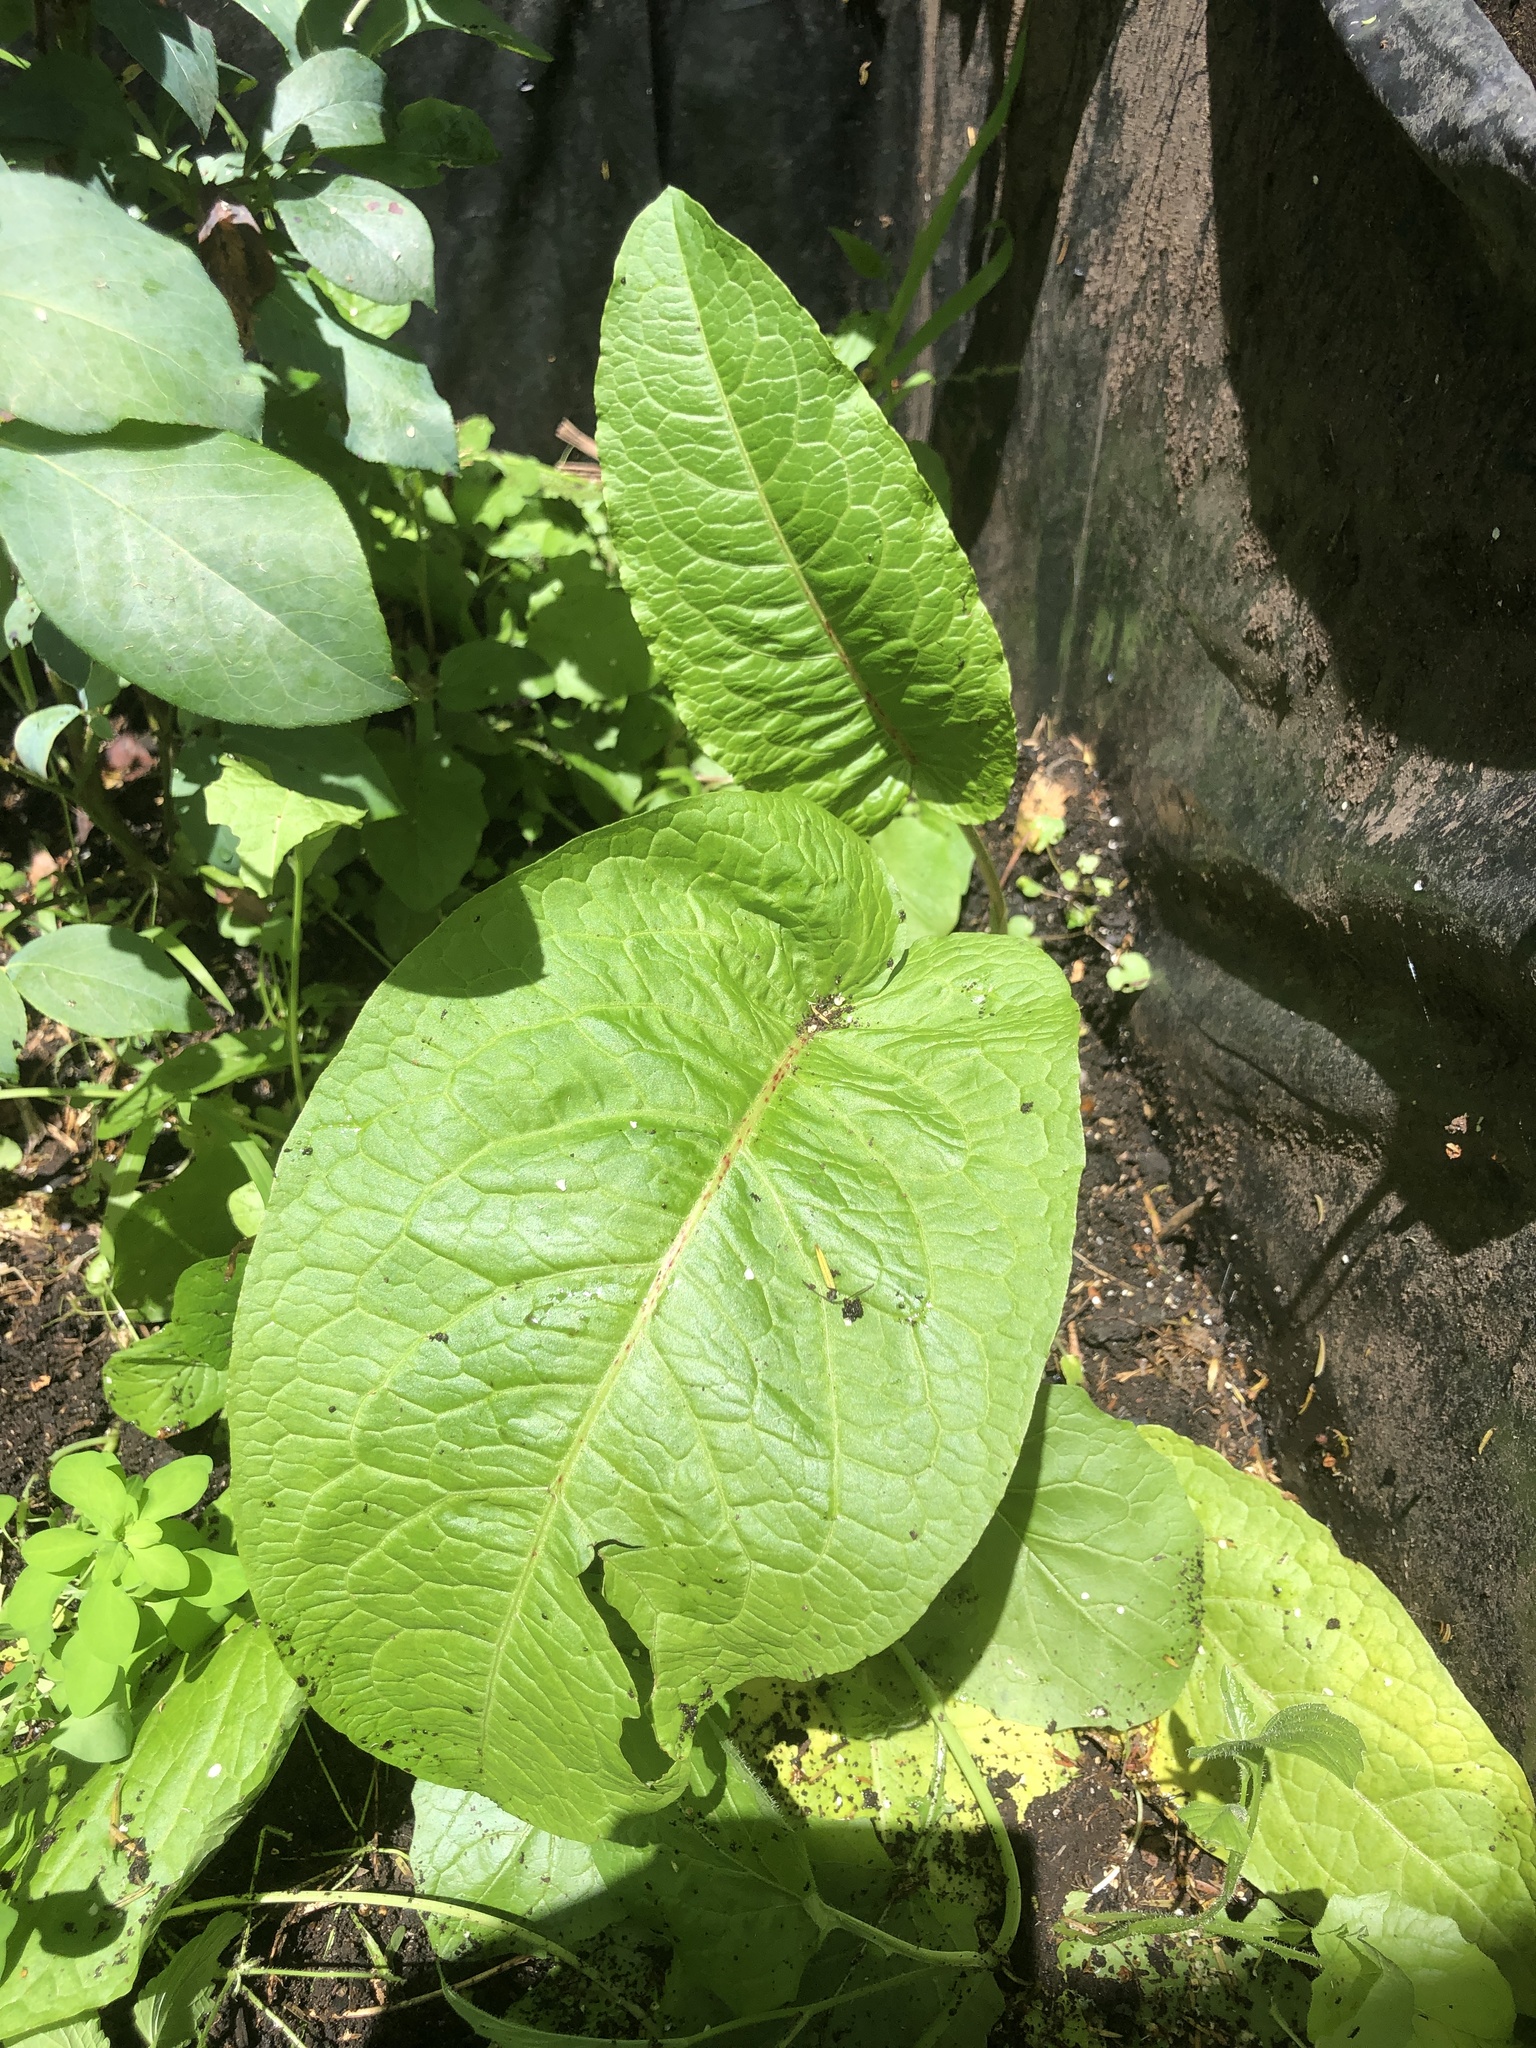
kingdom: Plantae
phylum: Tracheophyta
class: Magnoliopsida
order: Caryophyllales
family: Polygonaceae
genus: Rumex
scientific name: Rumex obtusifolius
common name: Bitter dock
